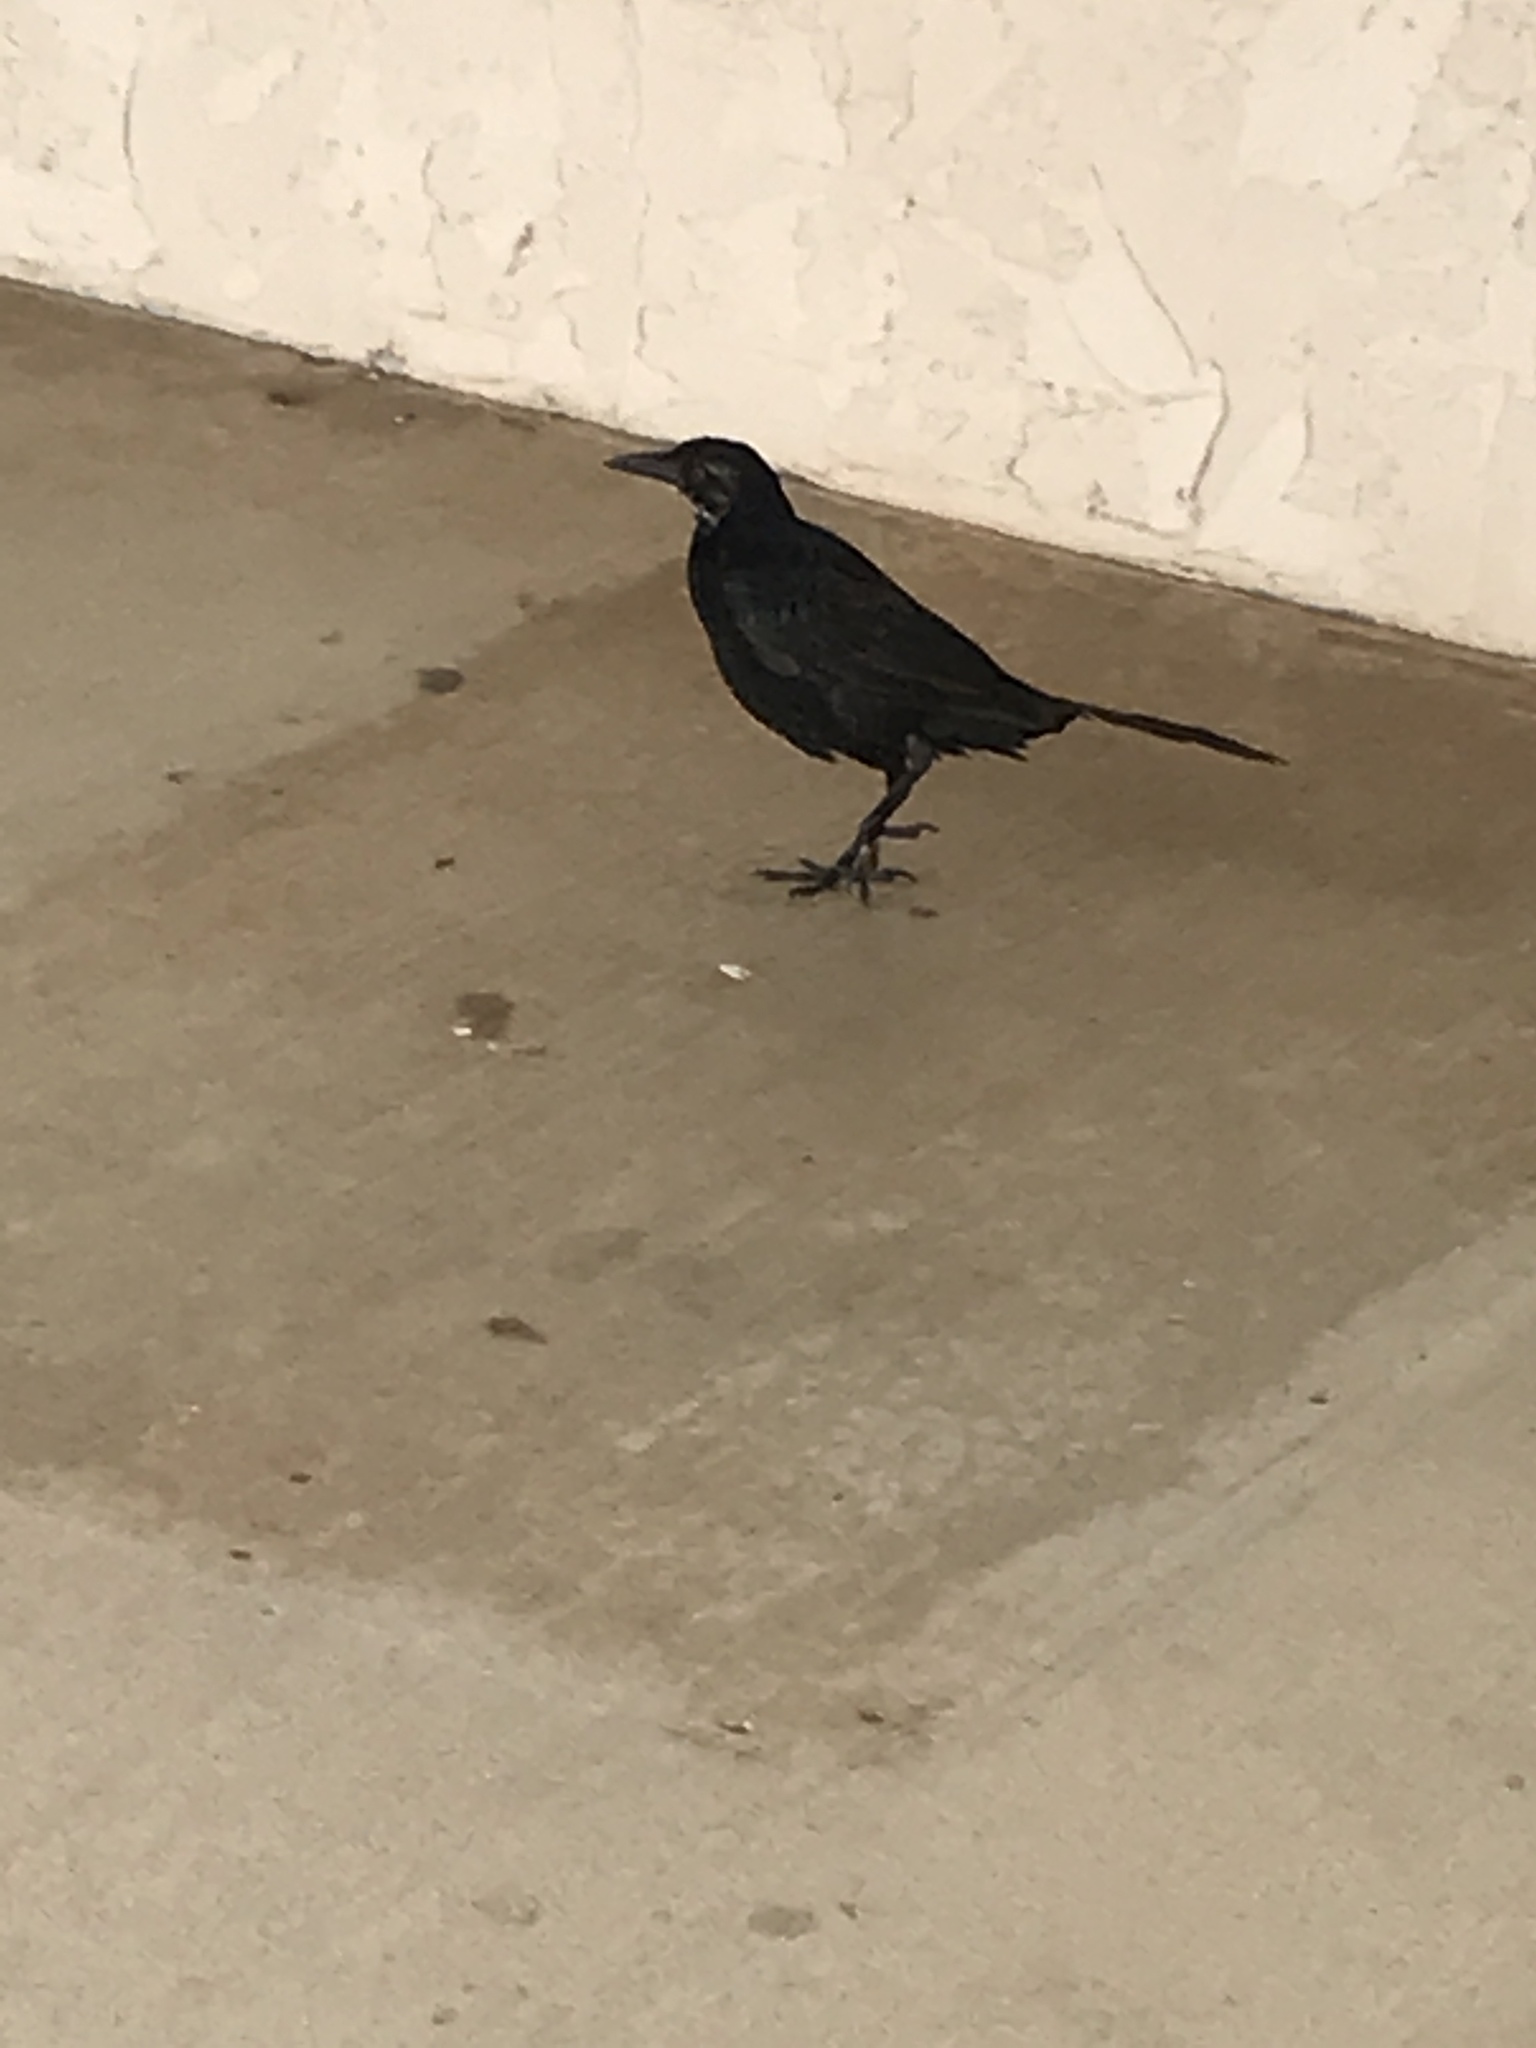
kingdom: Animalia
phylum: Chordata
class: Aves
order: Passeriformes
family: Icteridae
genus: Quiscalus
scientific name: Quiscalus mexicanus
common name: Great-tailed grackle
